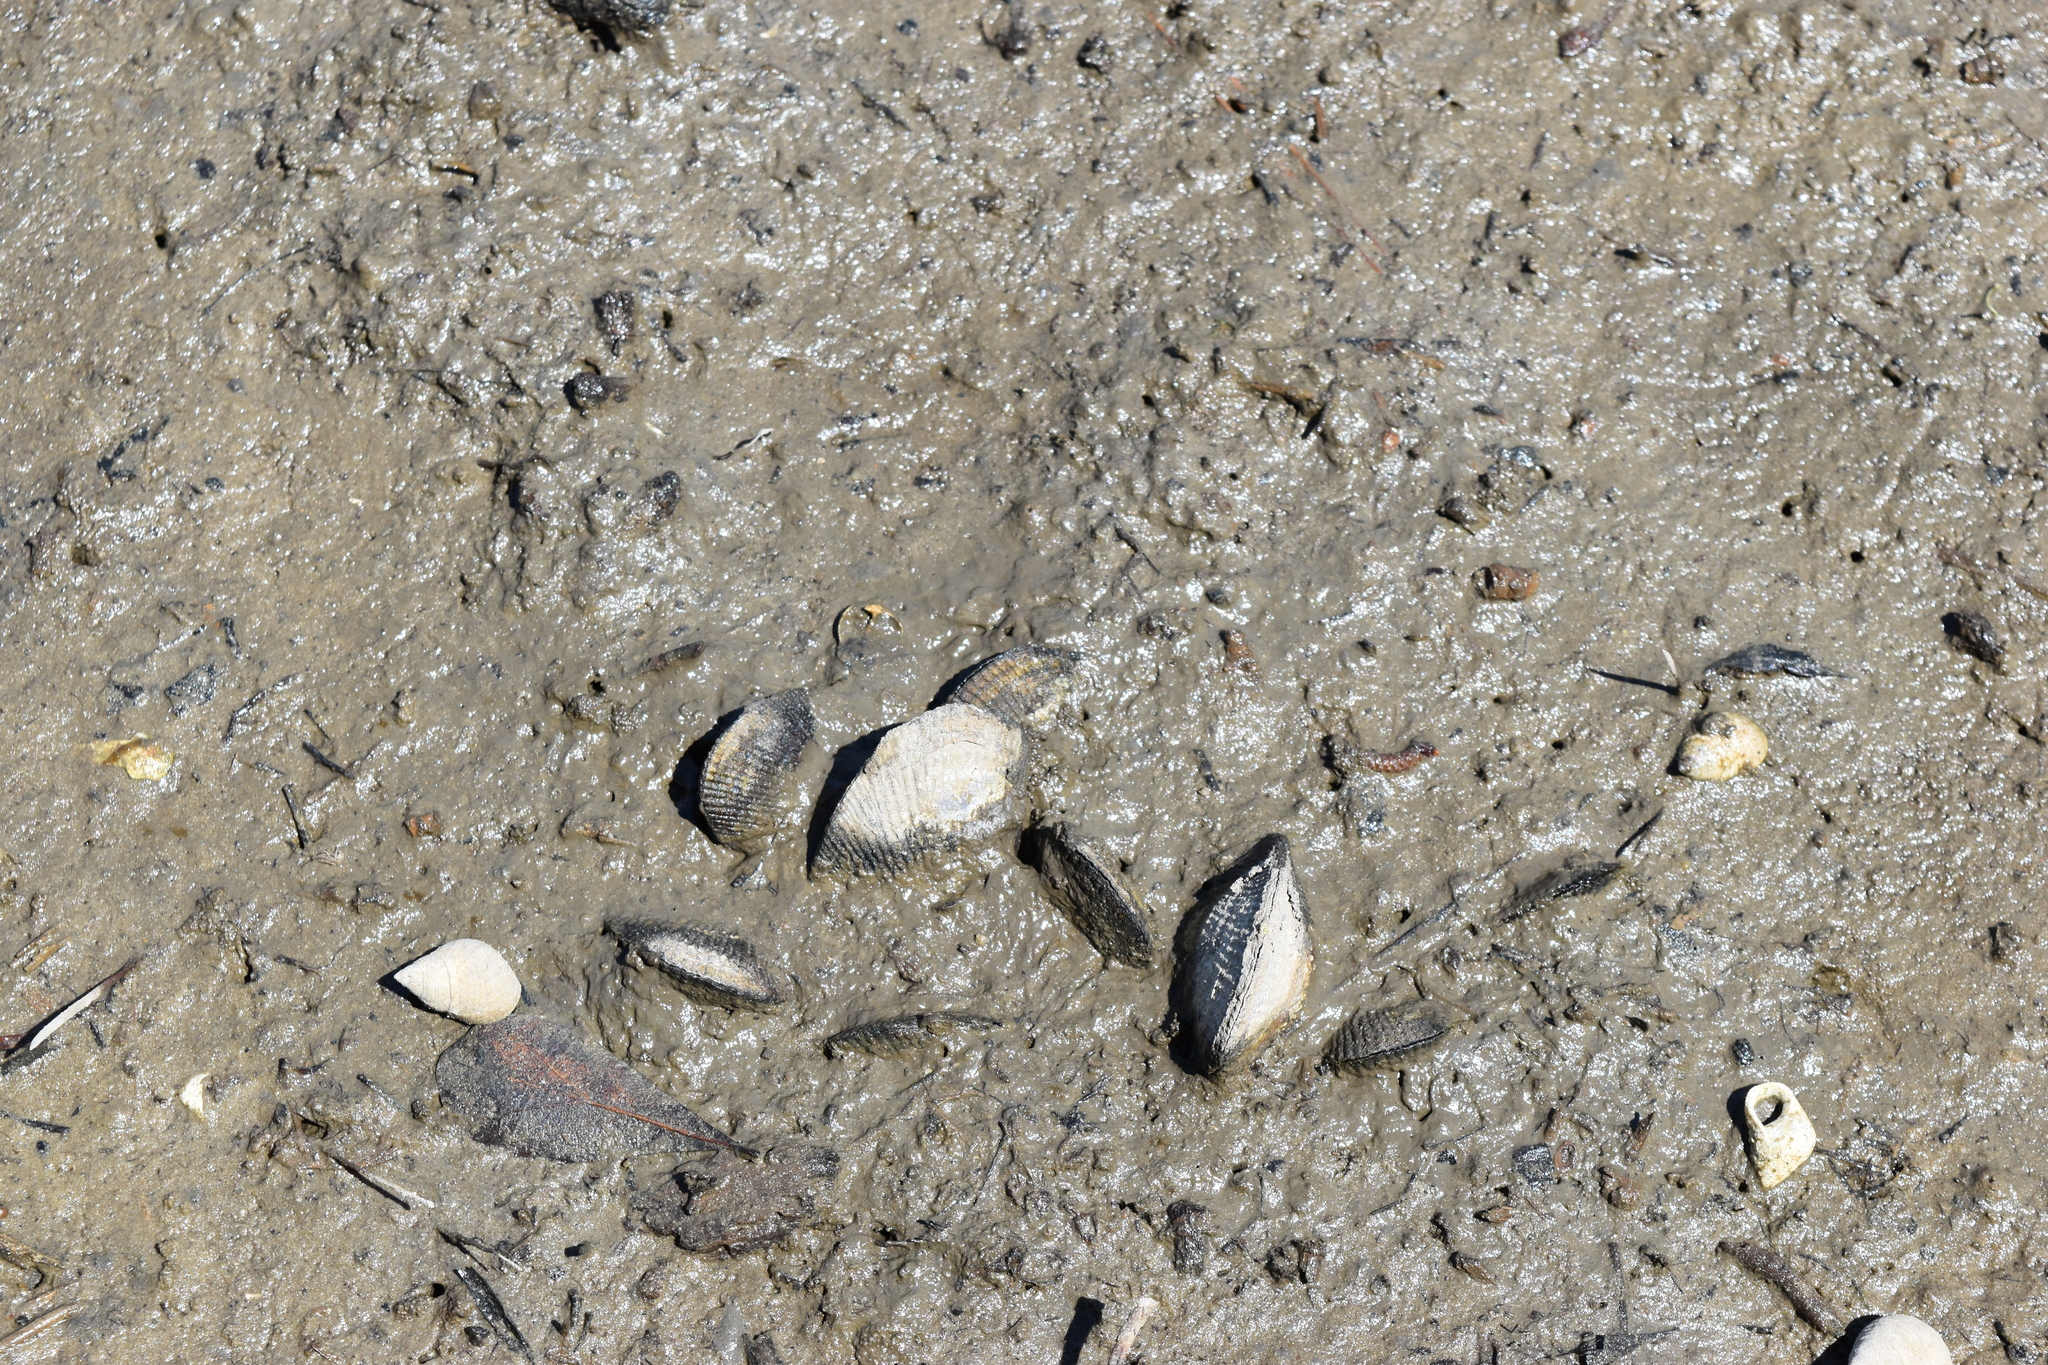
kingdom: Animalia
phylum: Mollusca
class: Bivalvia
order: Mytilida
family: Mytilidae
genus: Geukensia
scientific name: Geukensia demissa
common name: Ribbed mussel
